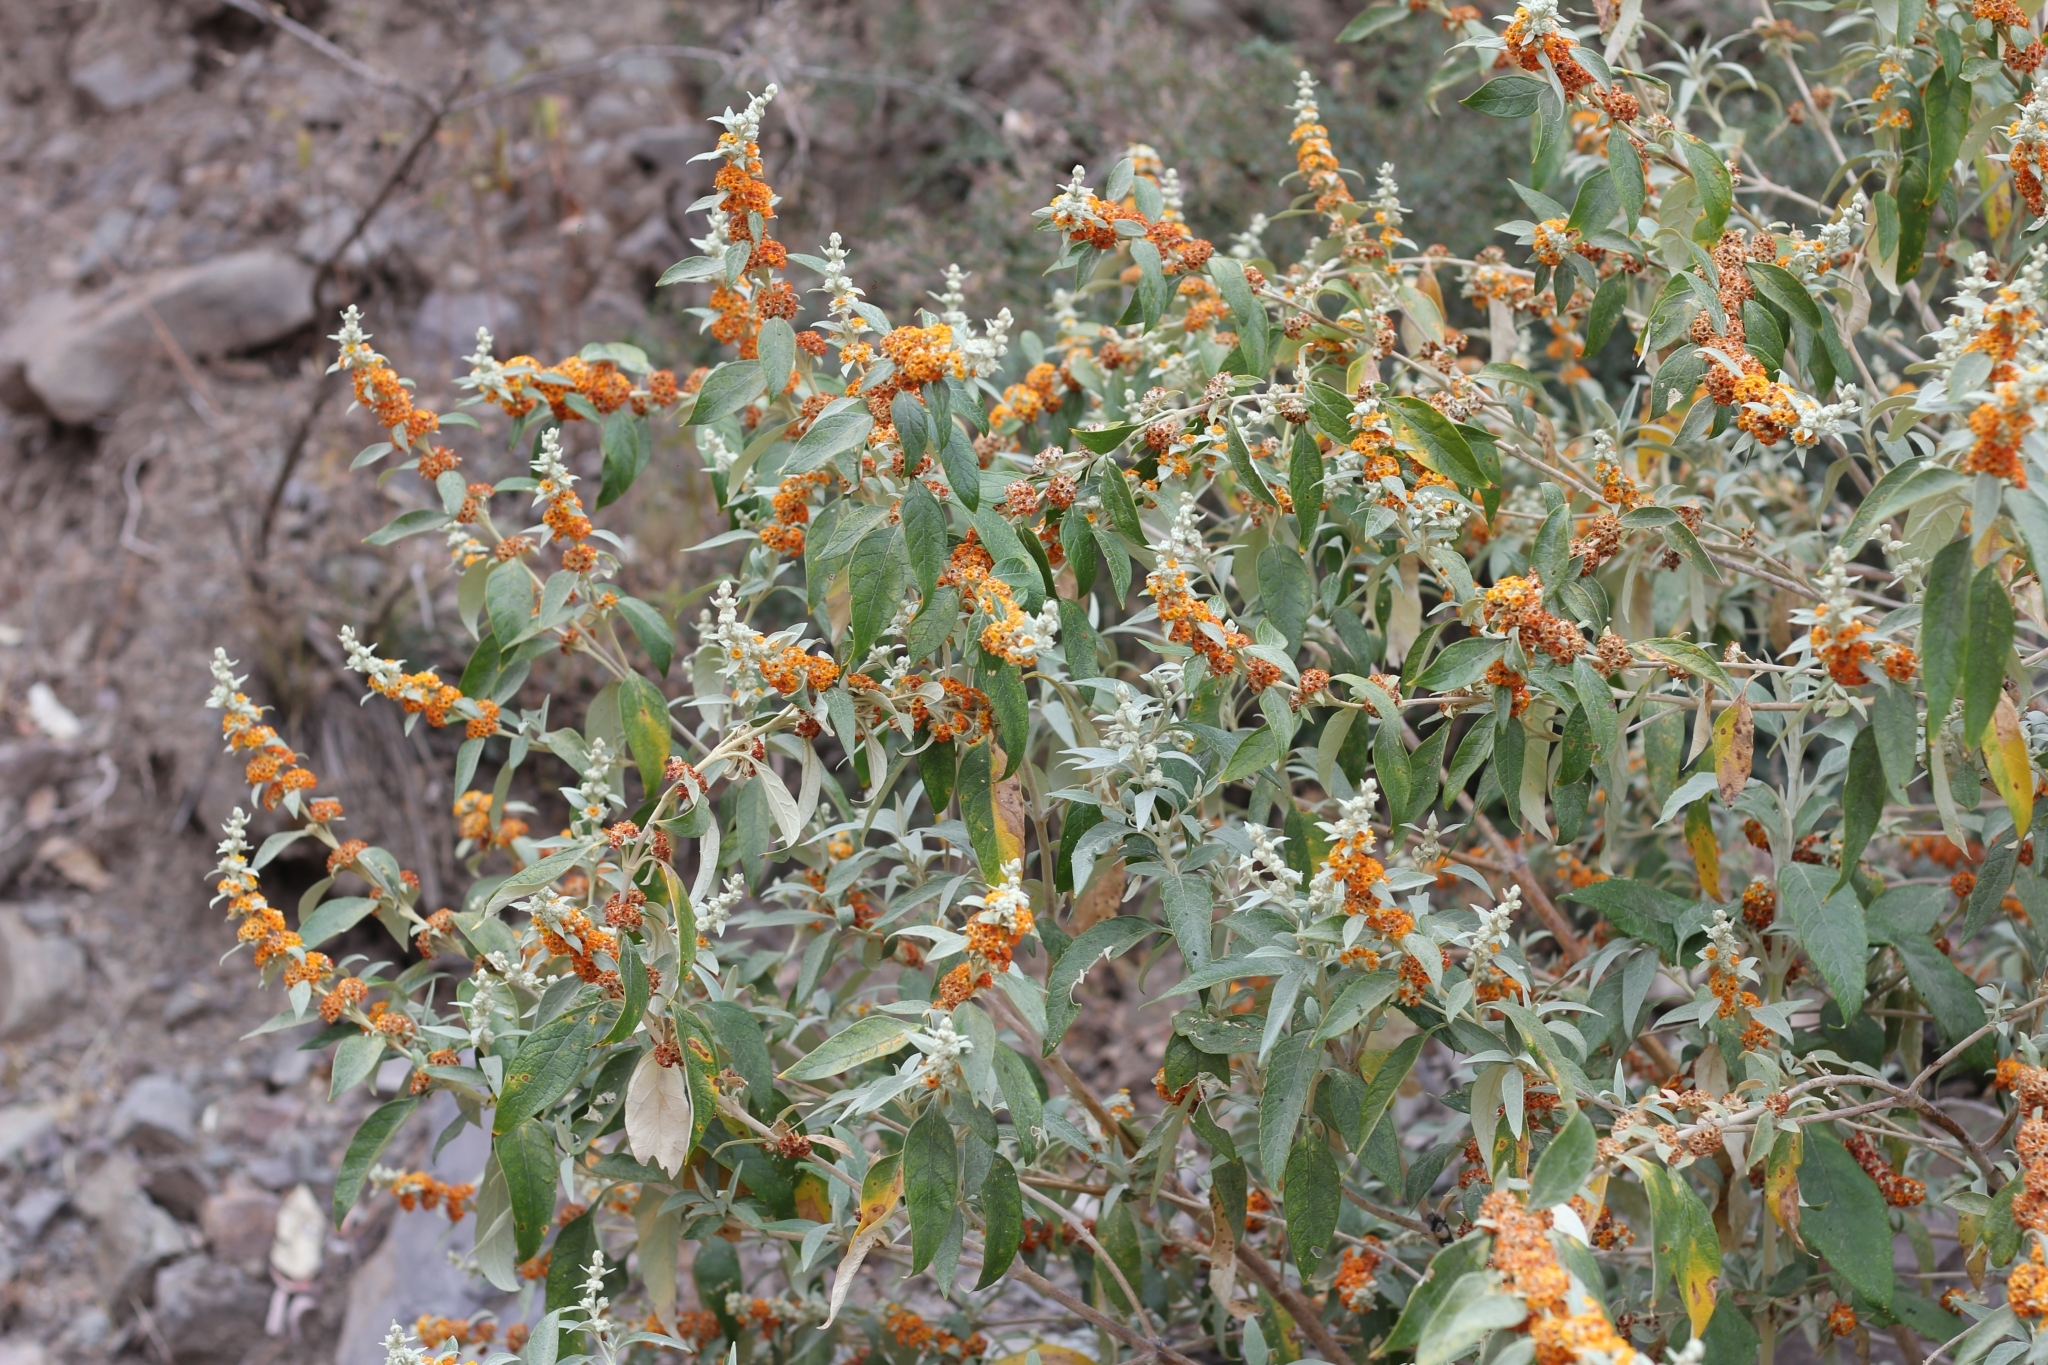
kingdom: Plantae
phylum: Tracheophyta
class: Magnoliopsida
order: Lamiales
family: Scrophulariaceae
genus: Buddleja
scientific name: Buddleja tucumanensis
